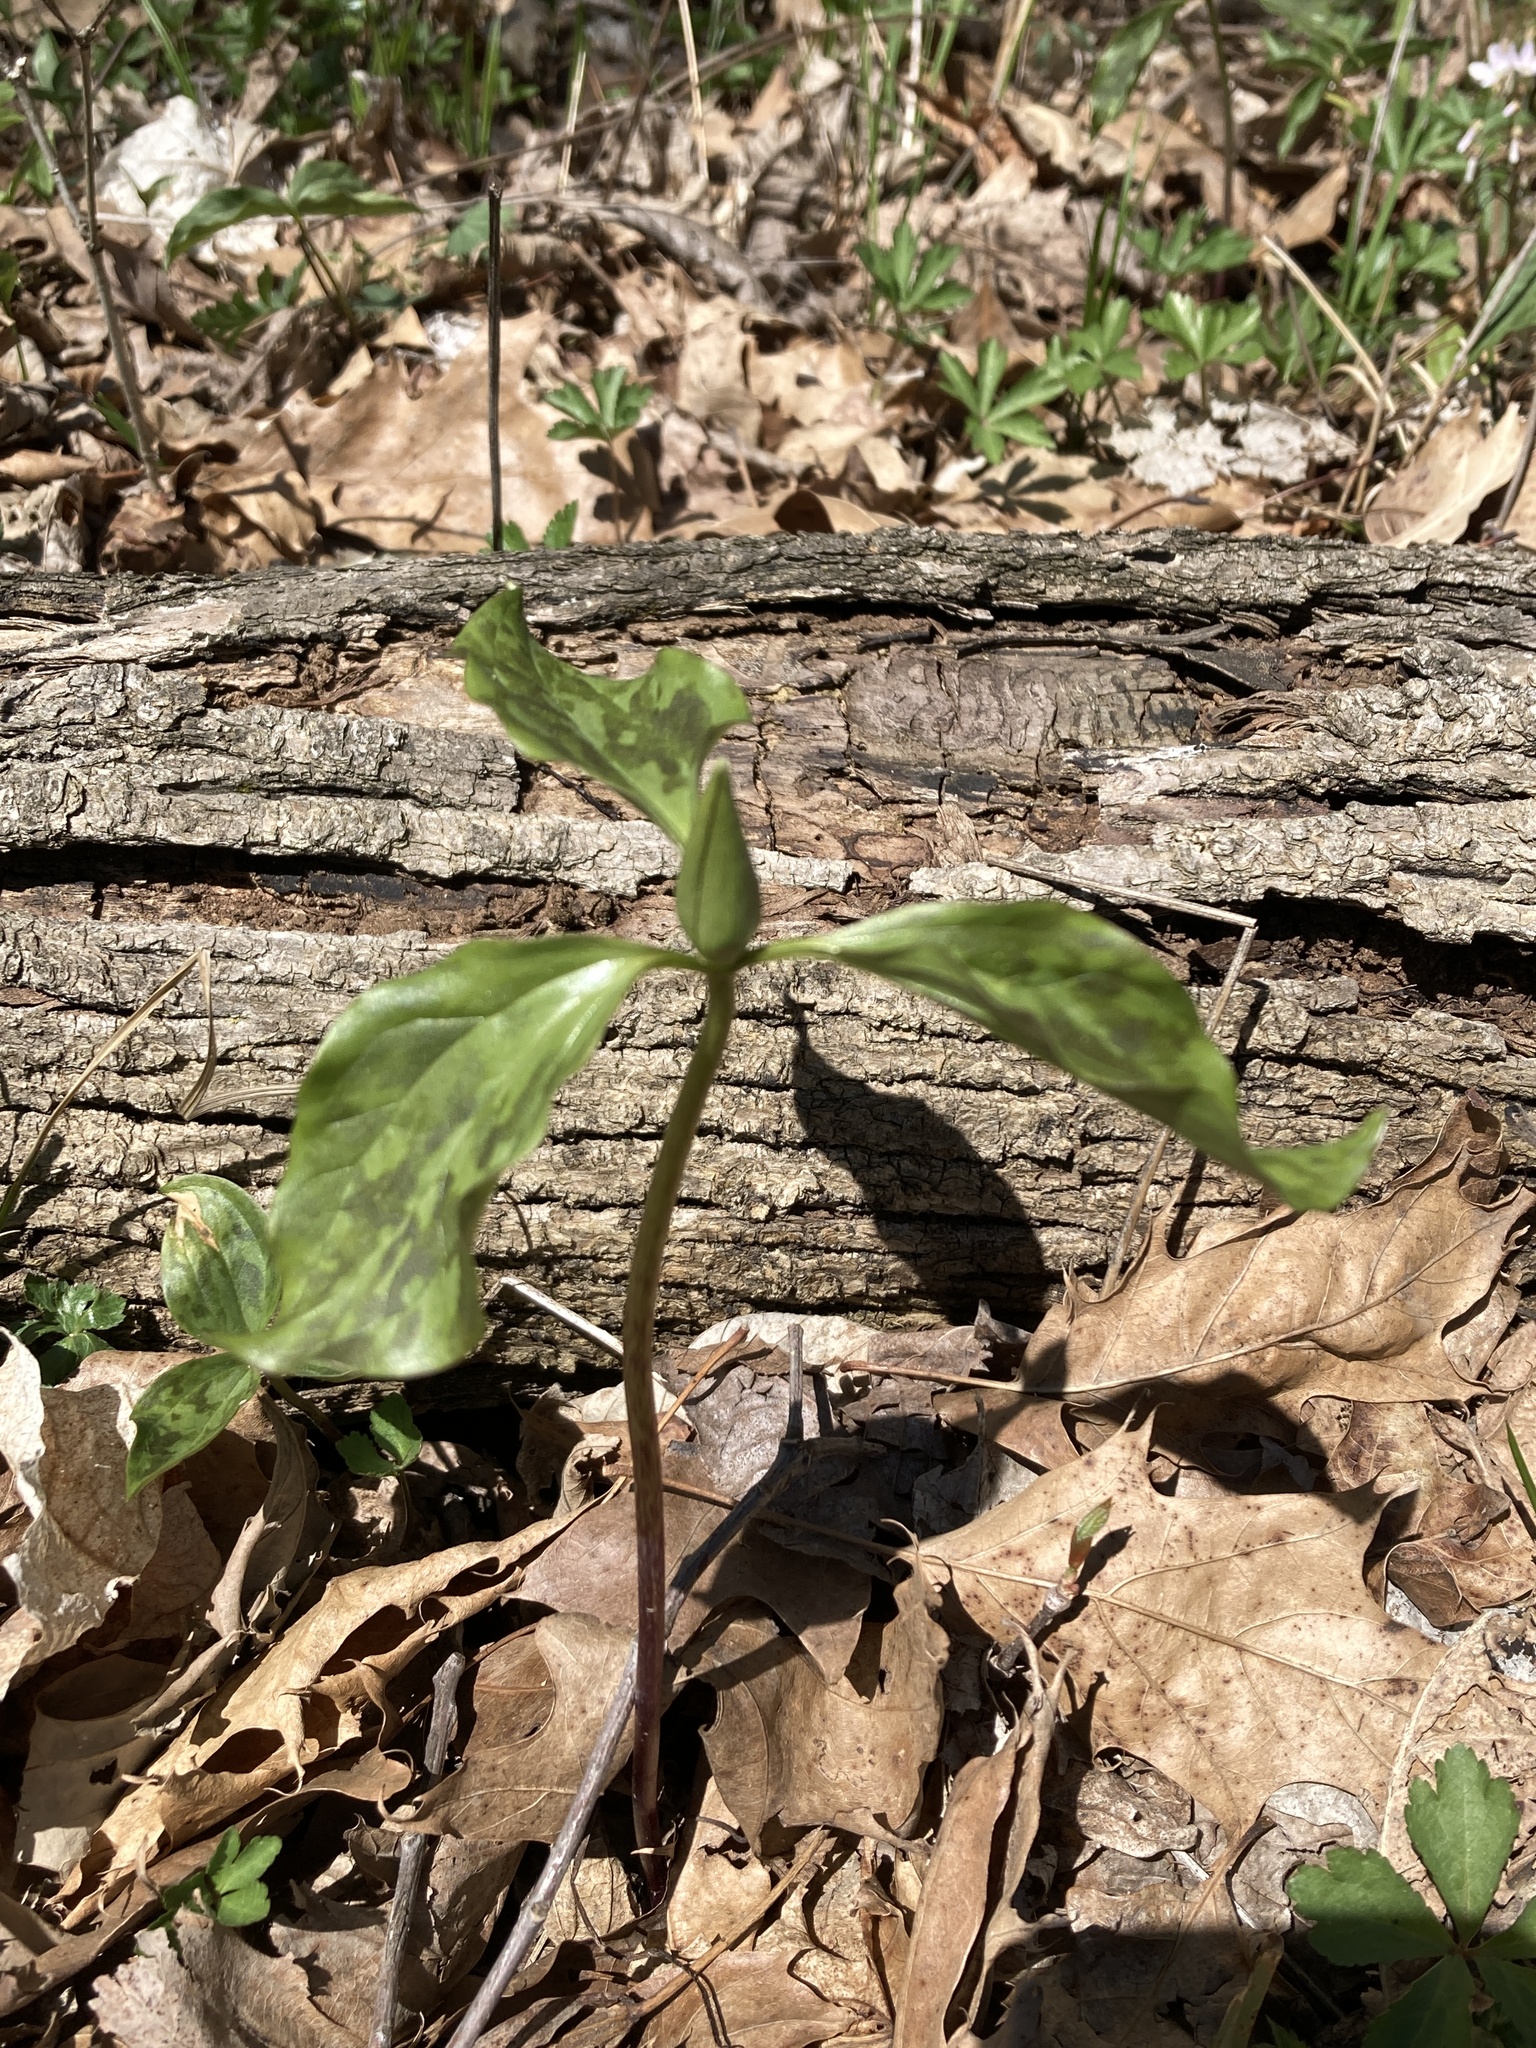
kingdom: Plantae
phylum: Tracheophyta
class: Liliopsida
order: Liliales
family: Melanthiaceae
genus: Trillium
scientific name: Trillium recurvatum
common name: Bloody butcher
